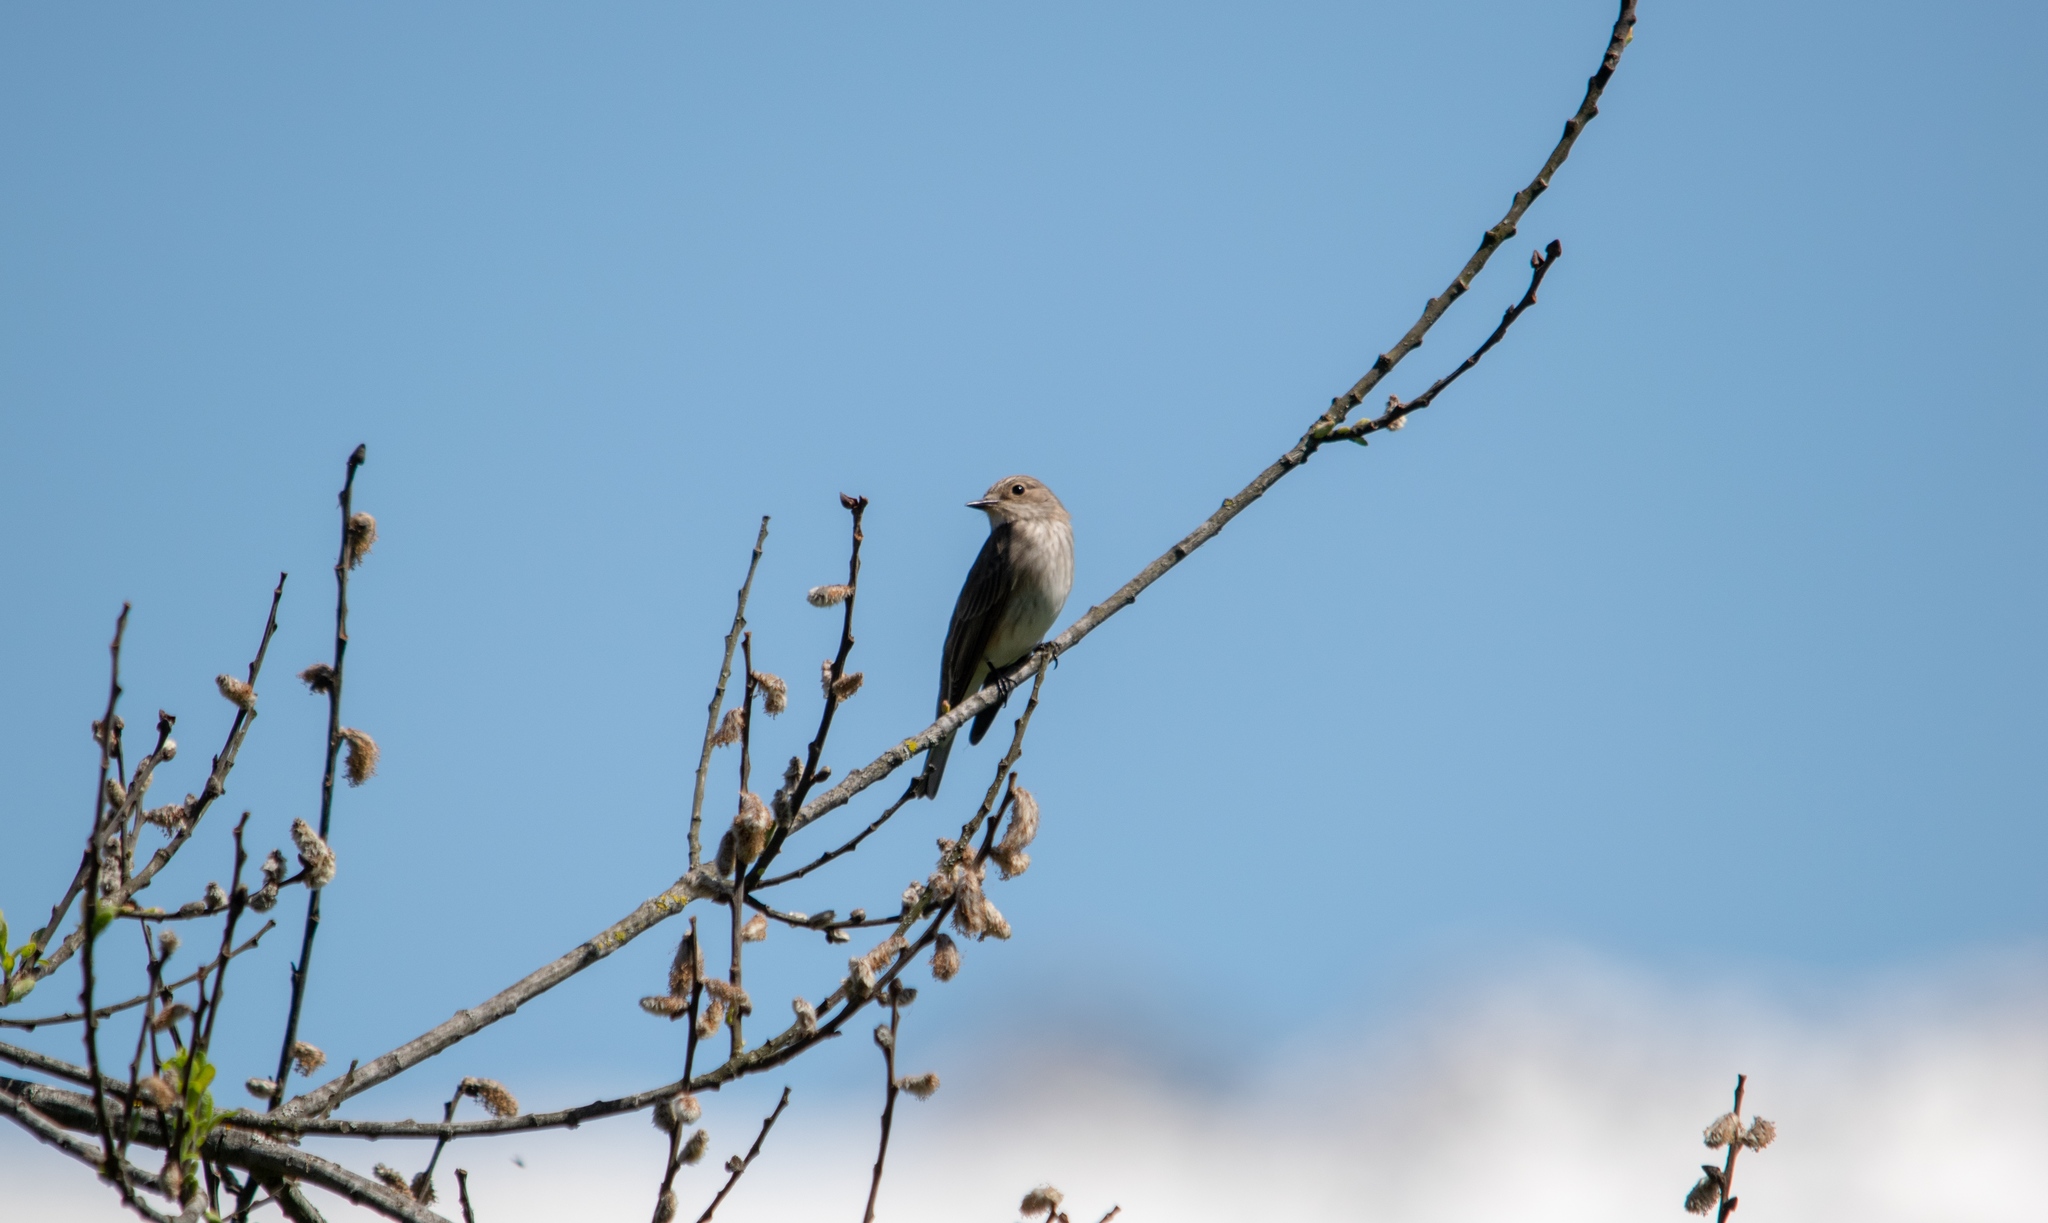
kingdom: Animalia
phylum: Chordata
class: Aves
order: Passeriformes
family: Muscicapidae
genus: Muscicapa
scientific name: Muscicapa striata
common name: Spotted flycatcher
